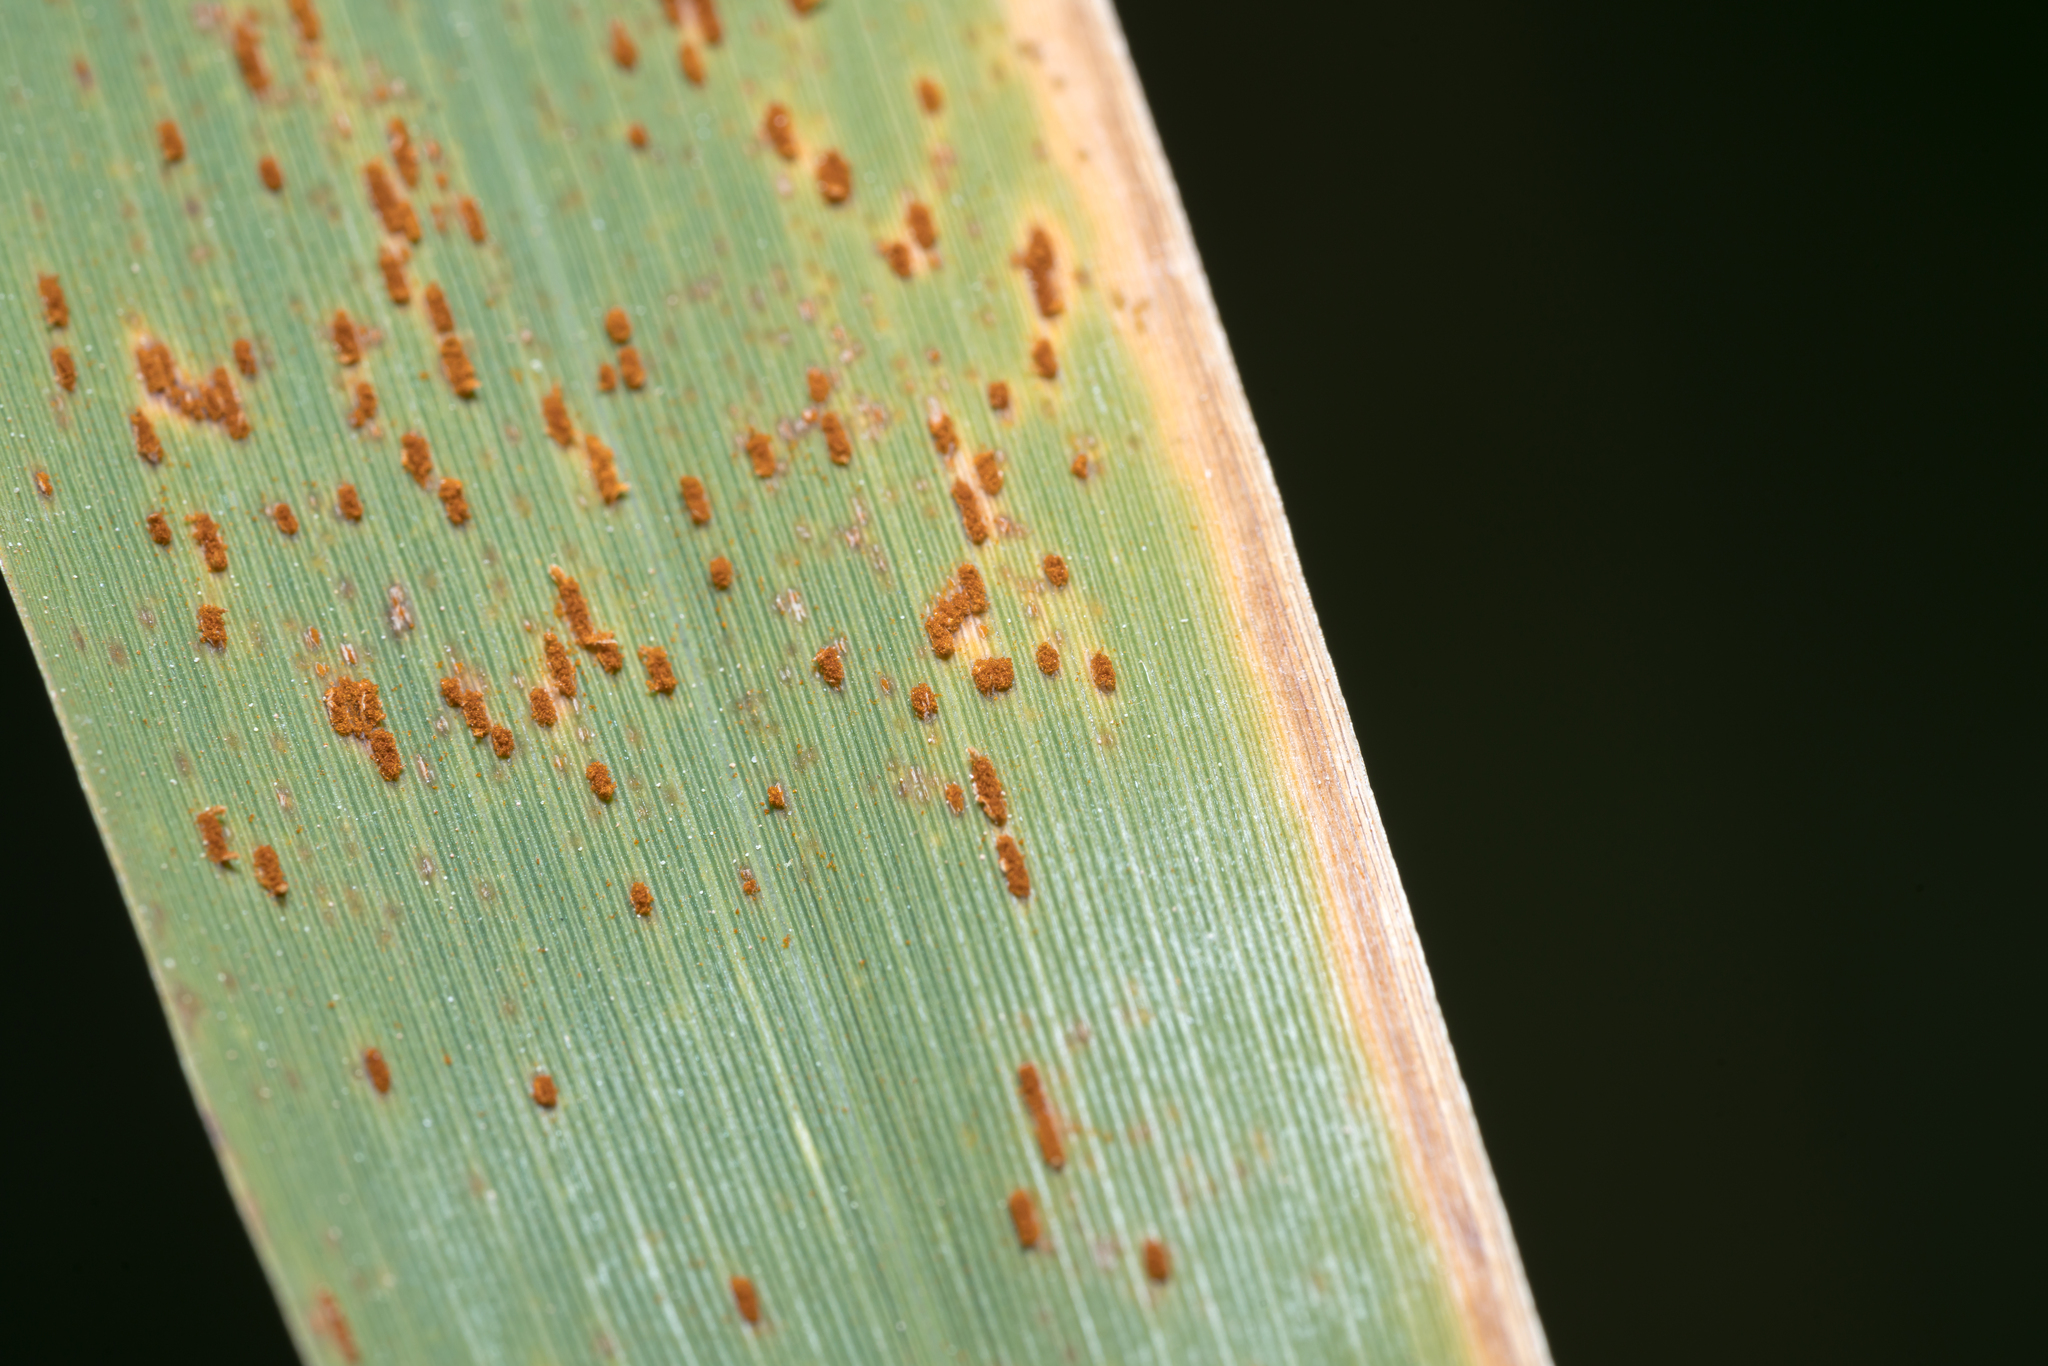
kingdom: Fungi
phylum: Basidiomycota
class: Pucciniomycetes
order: Pucciniales
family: Pucciniaceae
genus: Puccinia
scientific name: Puccinia phragmitis
